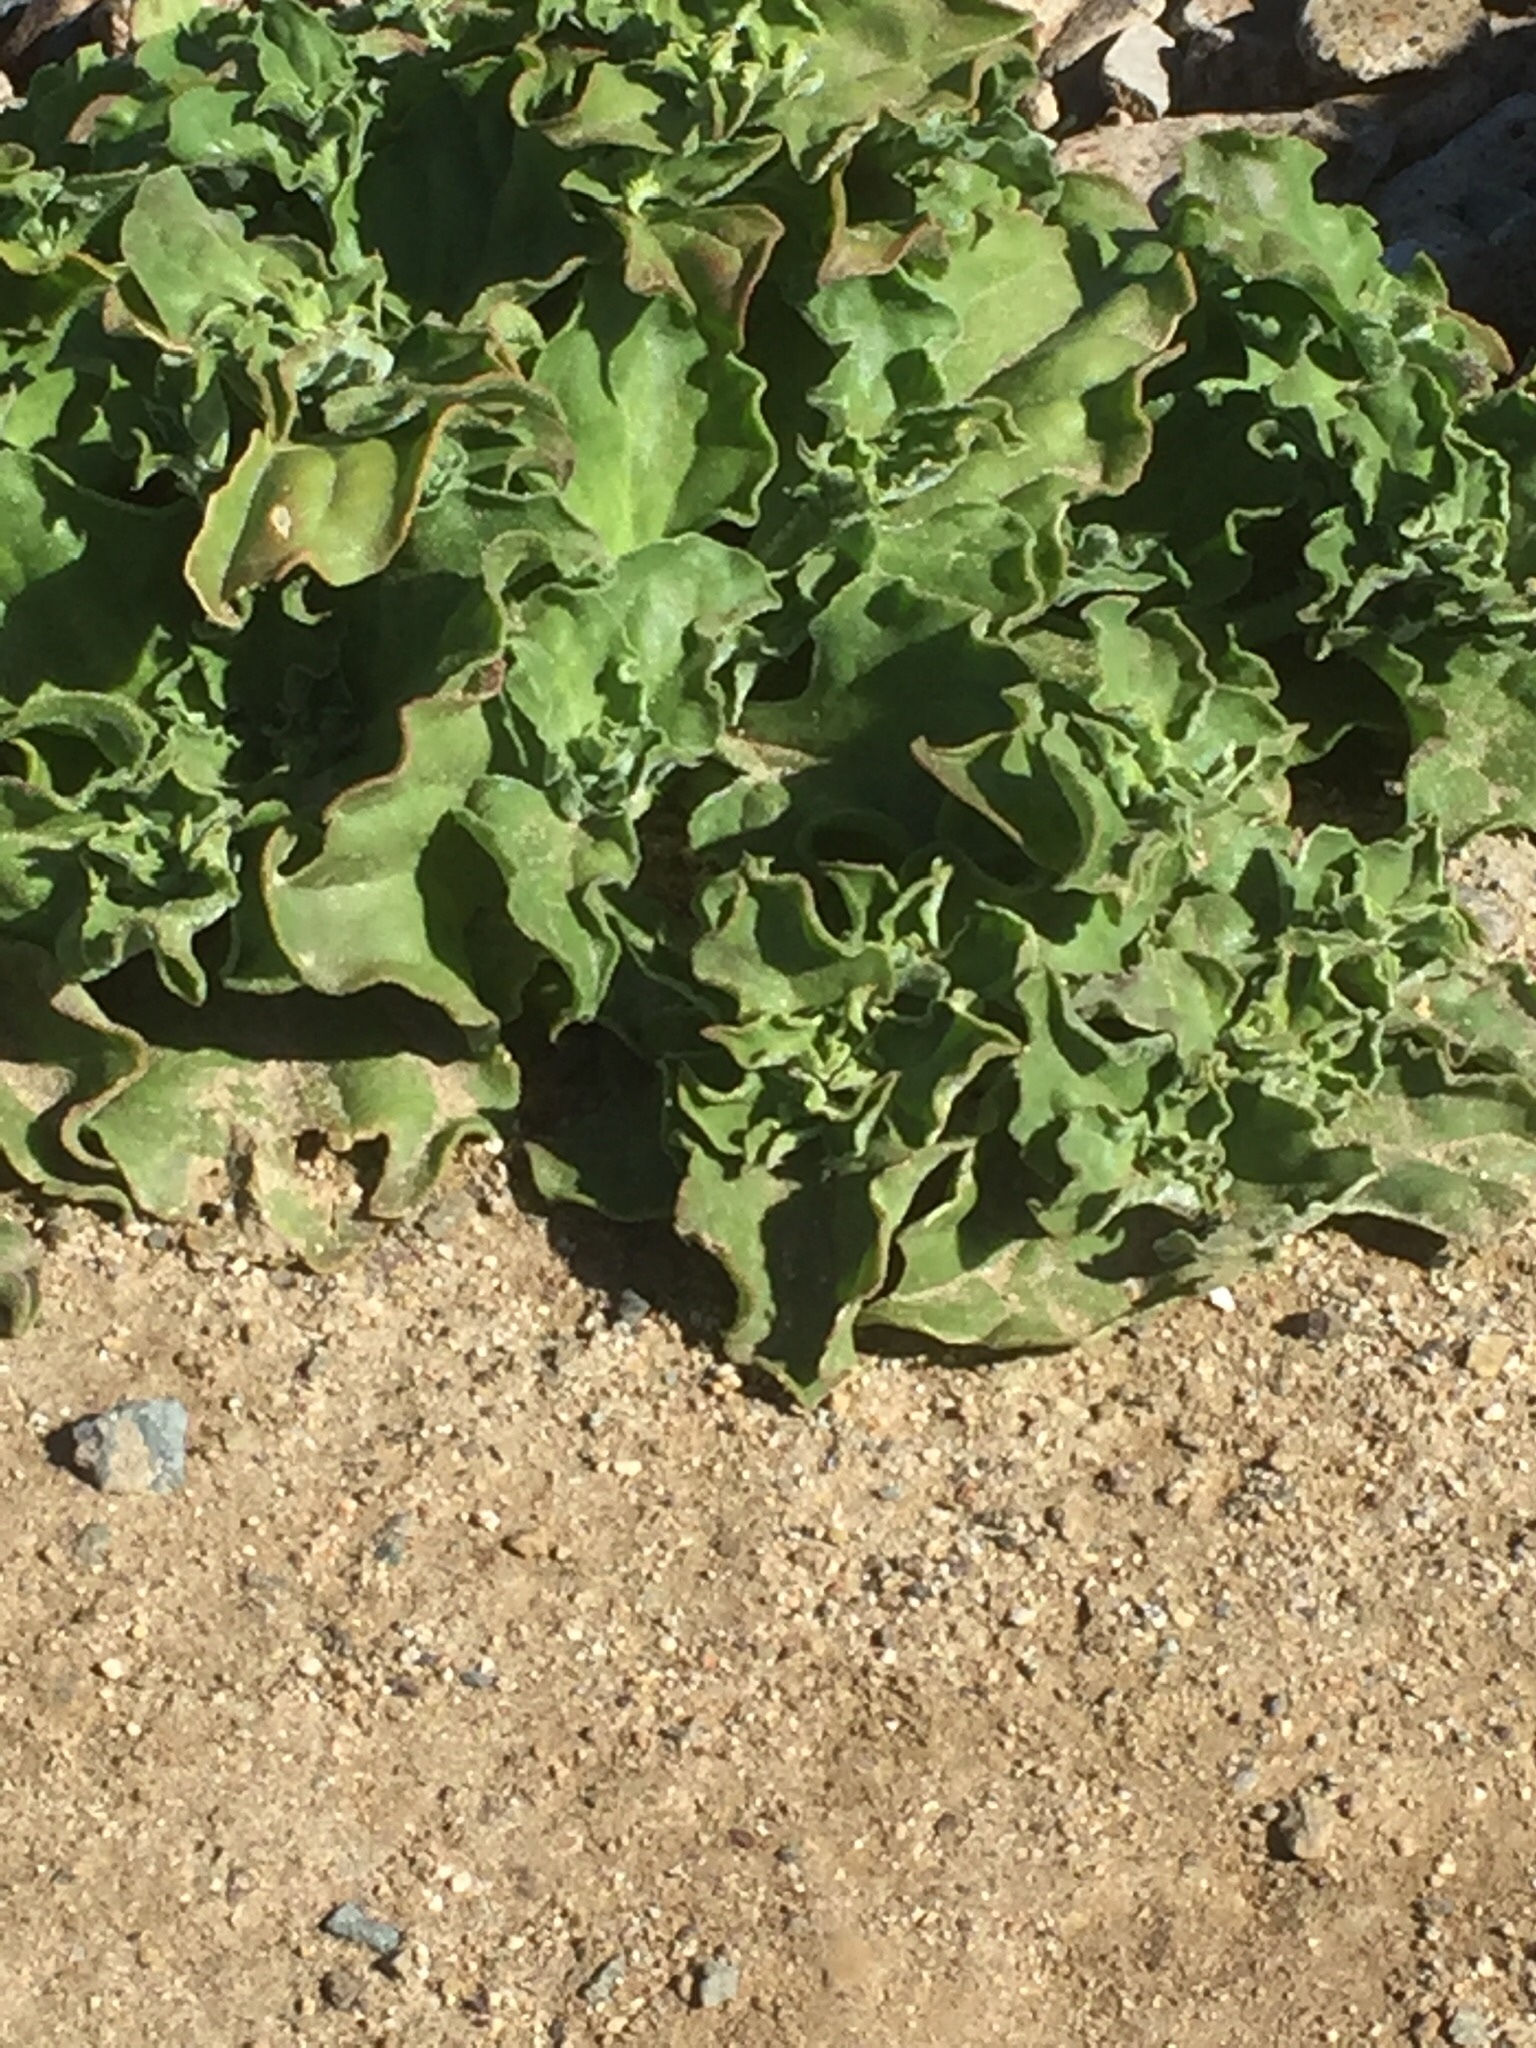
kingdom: Plantae
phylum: Tracheophyta
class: Magnoliopsida
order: Caryophyllales
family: Aizoaceae
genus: Mesembryanthemum
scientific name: Mesembryanthemum crystallinum
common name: Common iceplant
